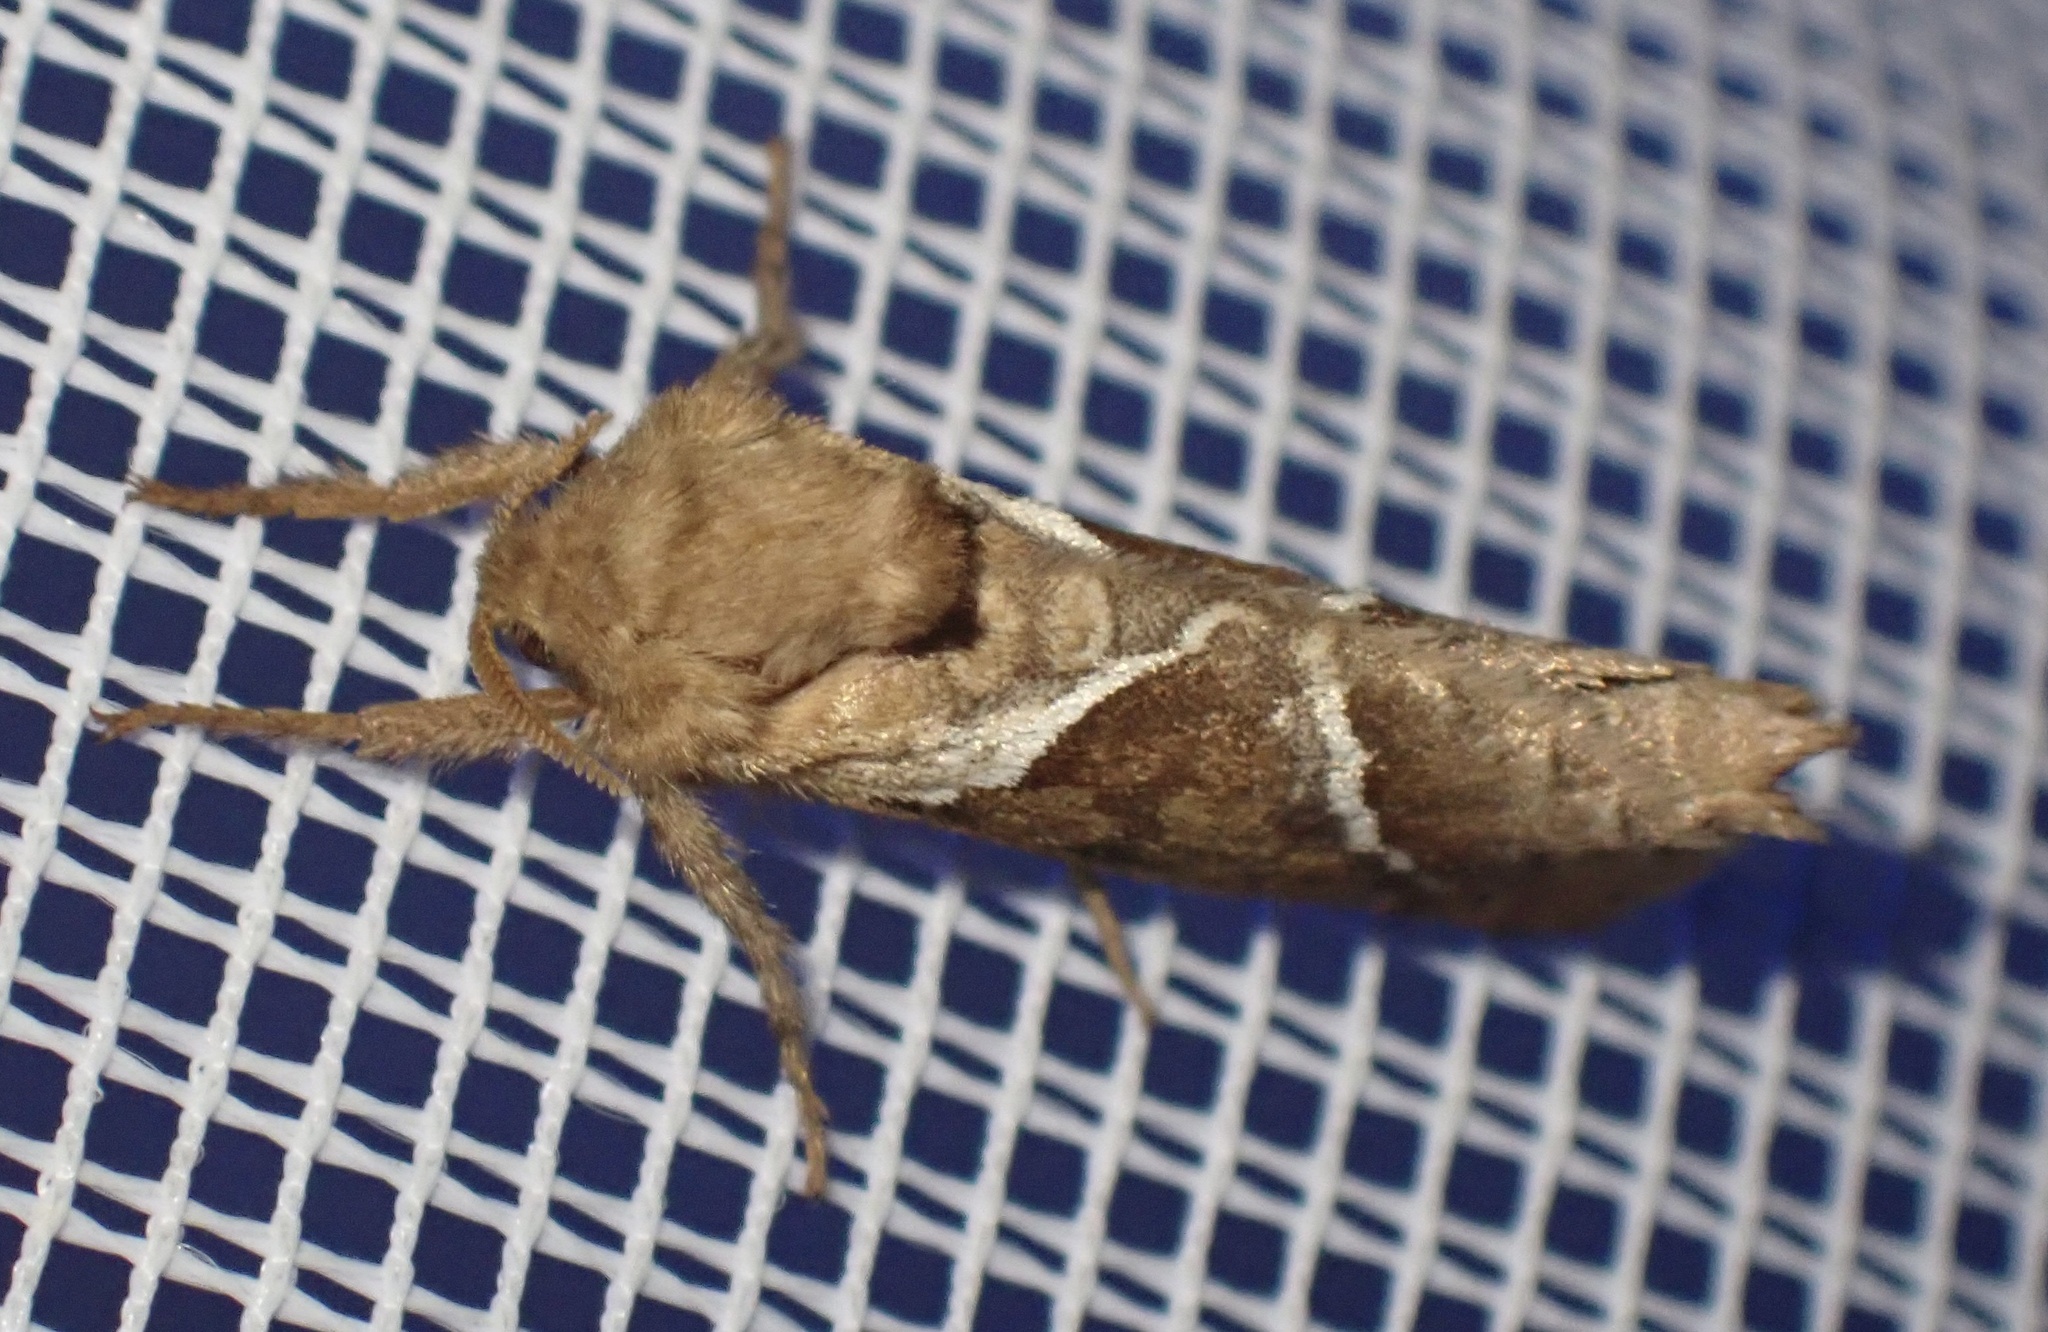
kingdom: Animalia
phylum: Arthropoda
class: Insecta
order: Lepidoptera
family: Hepialidae
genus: Triodia
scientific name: Triodia sylvina
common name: Orange swift
